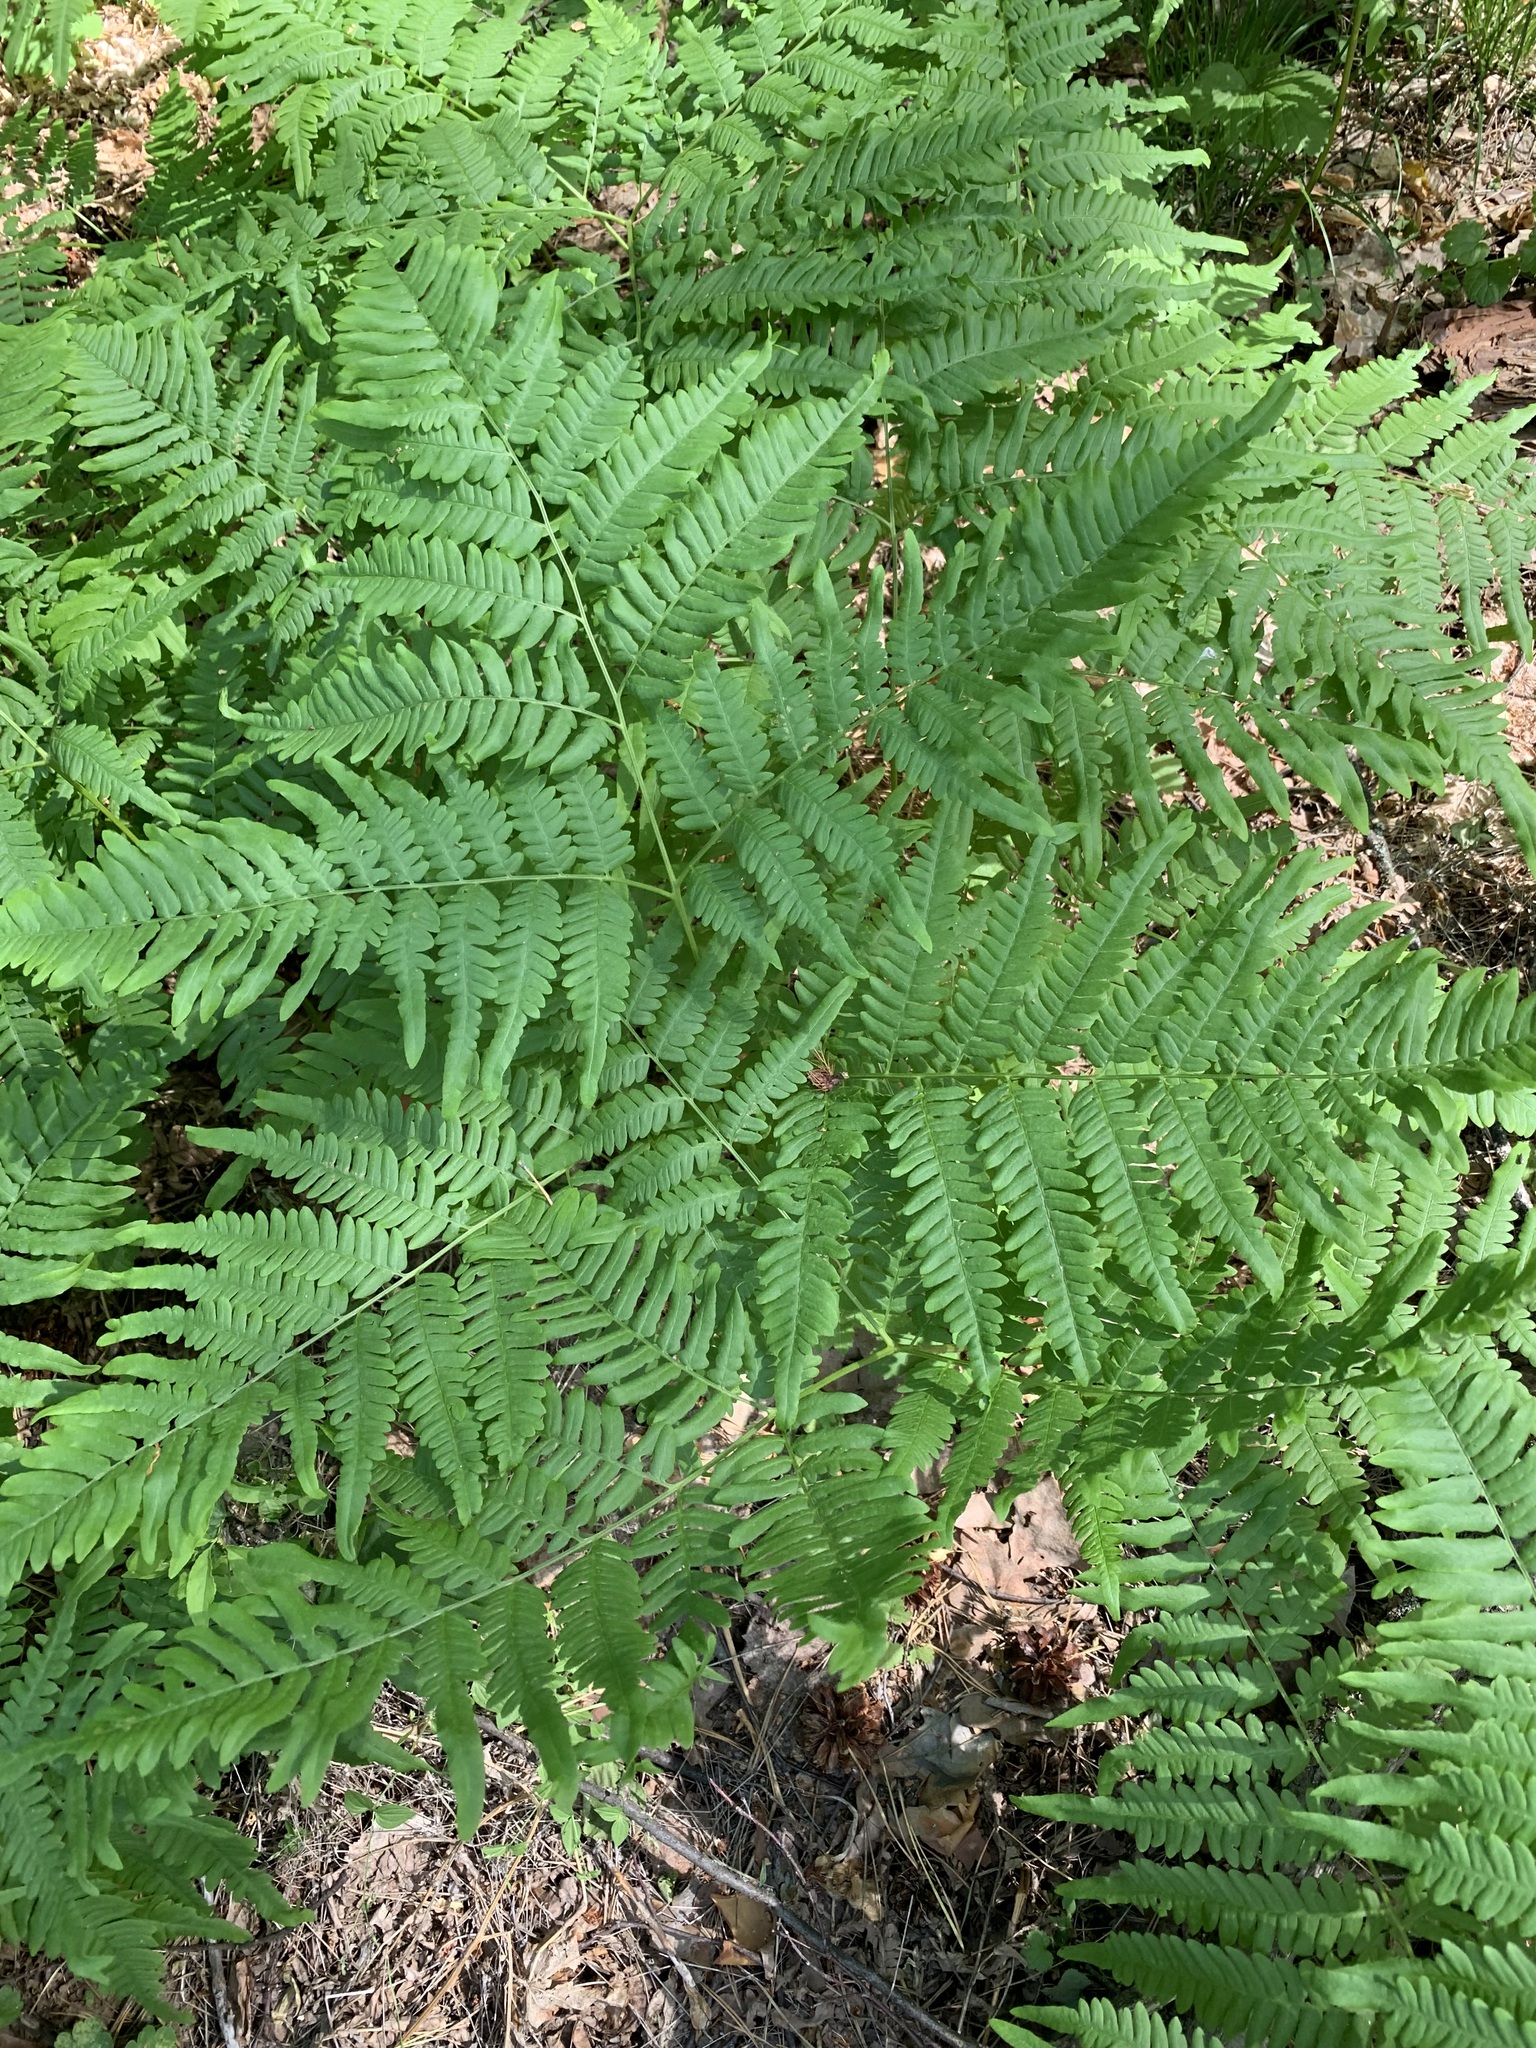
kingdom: Plantae
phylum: Tracheophyta
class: Polypodiopsida
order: Polypodiales
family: Dennstaedtiaceae
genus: Pteridium
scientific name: Pteridium aquilinum
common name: Bracken
